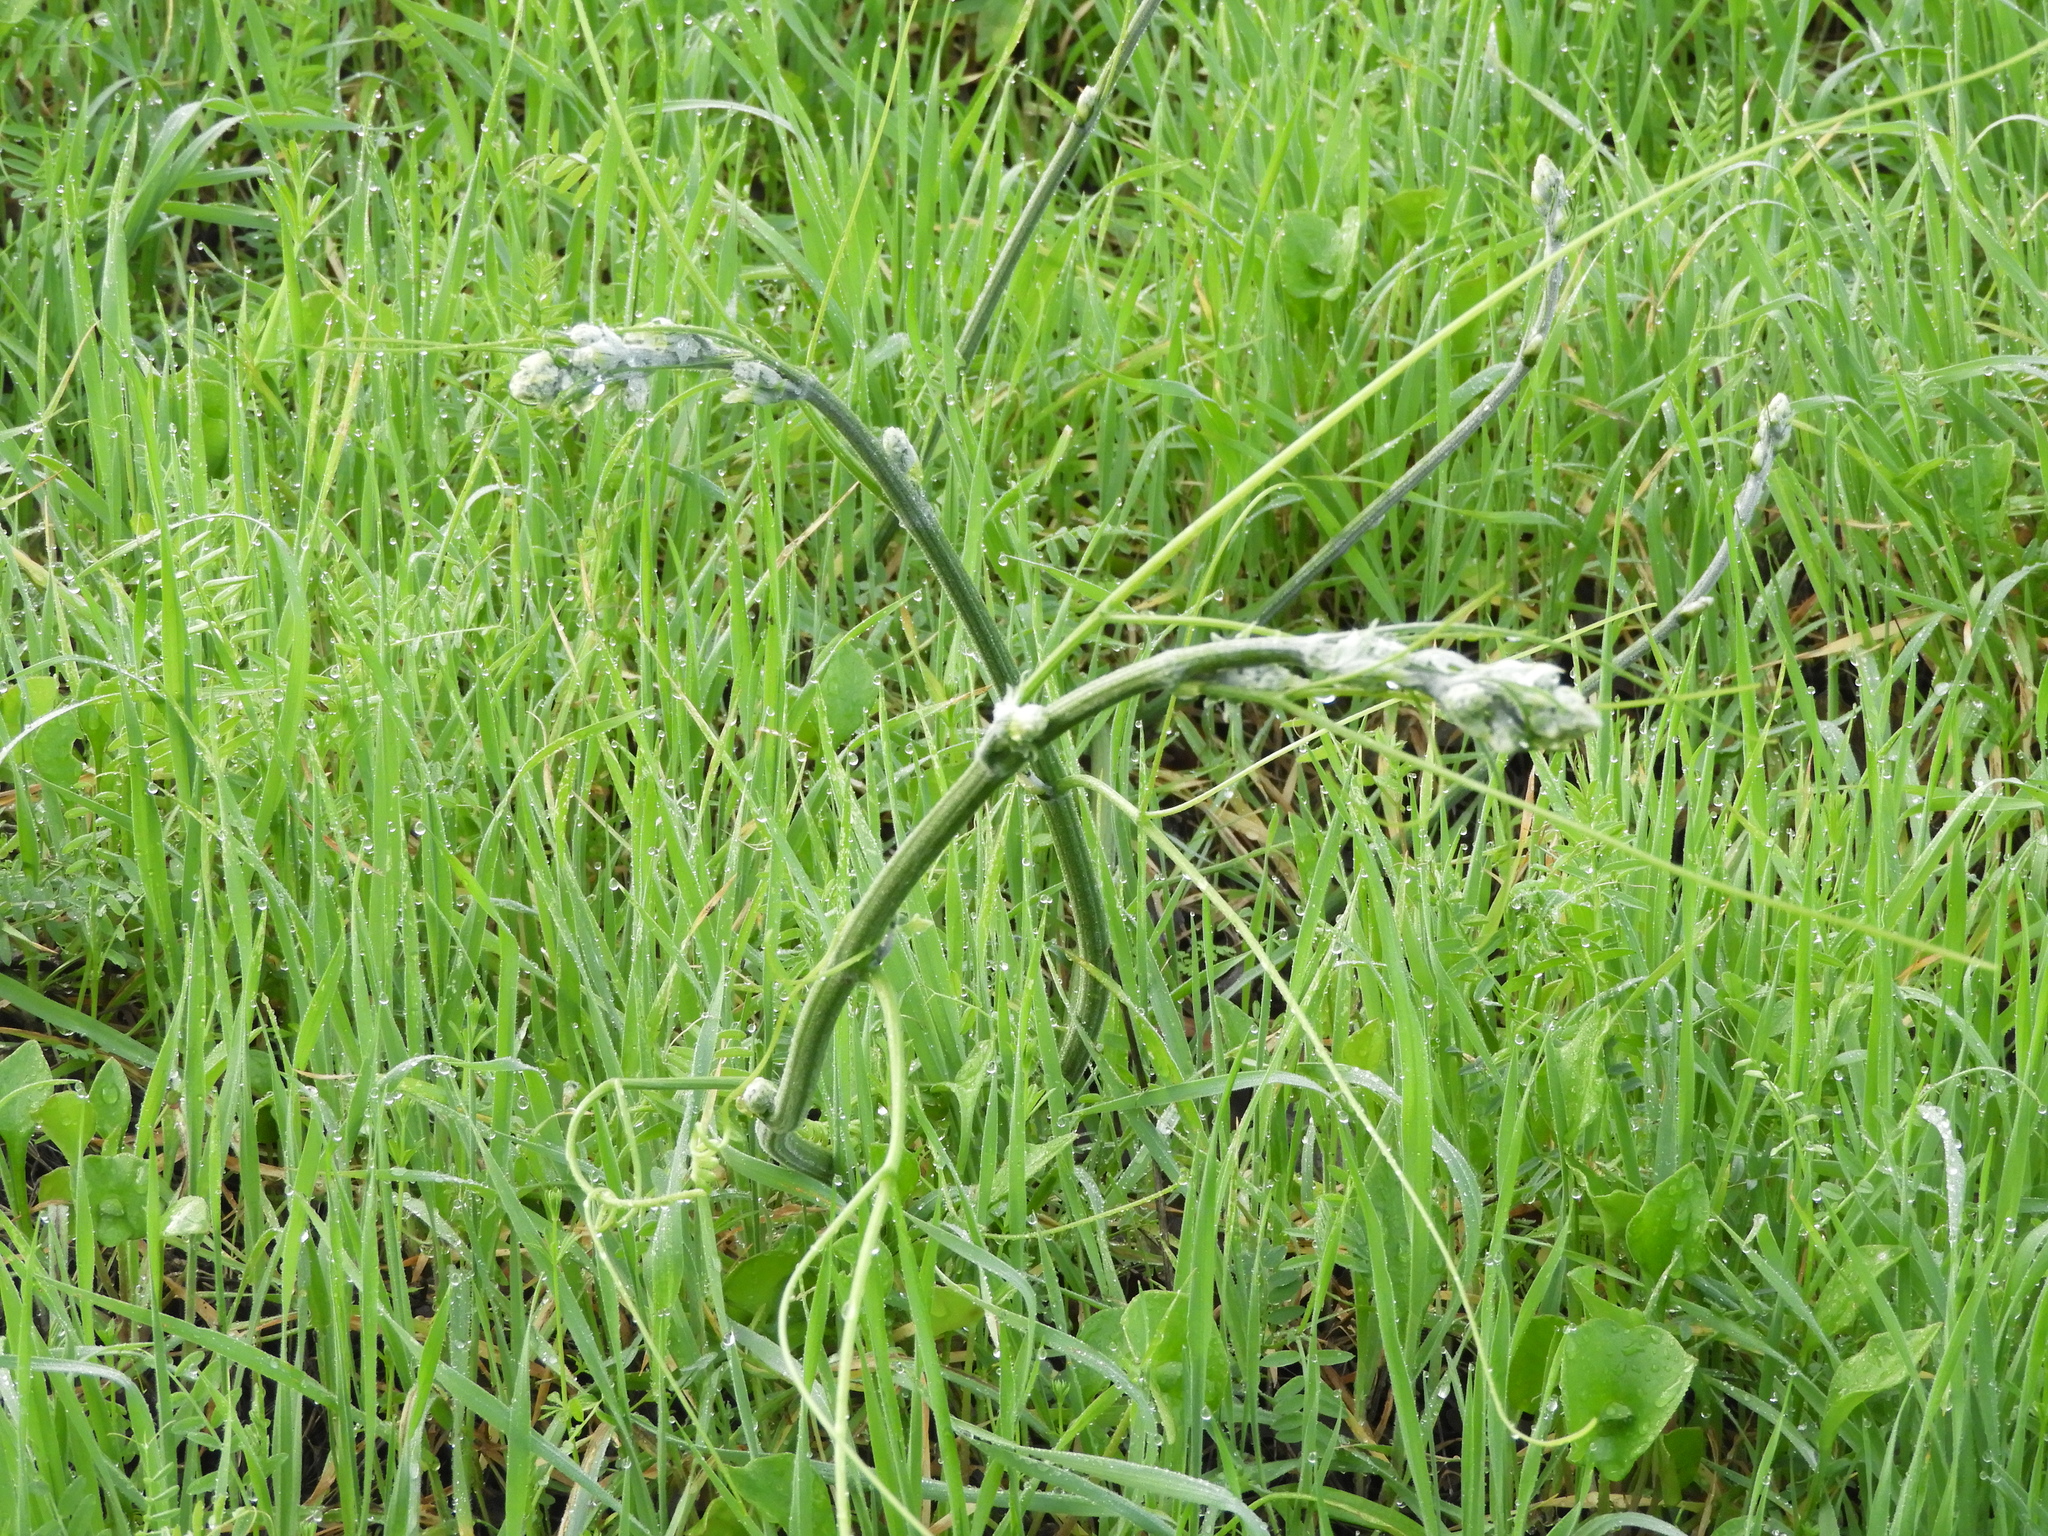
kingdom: Plantae
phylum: Tracheophyta
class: Magnoliopsida
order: Cucurbitales
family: Cucurbitaceae
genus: Marah
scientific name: Marah fabacea
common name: California manroot
